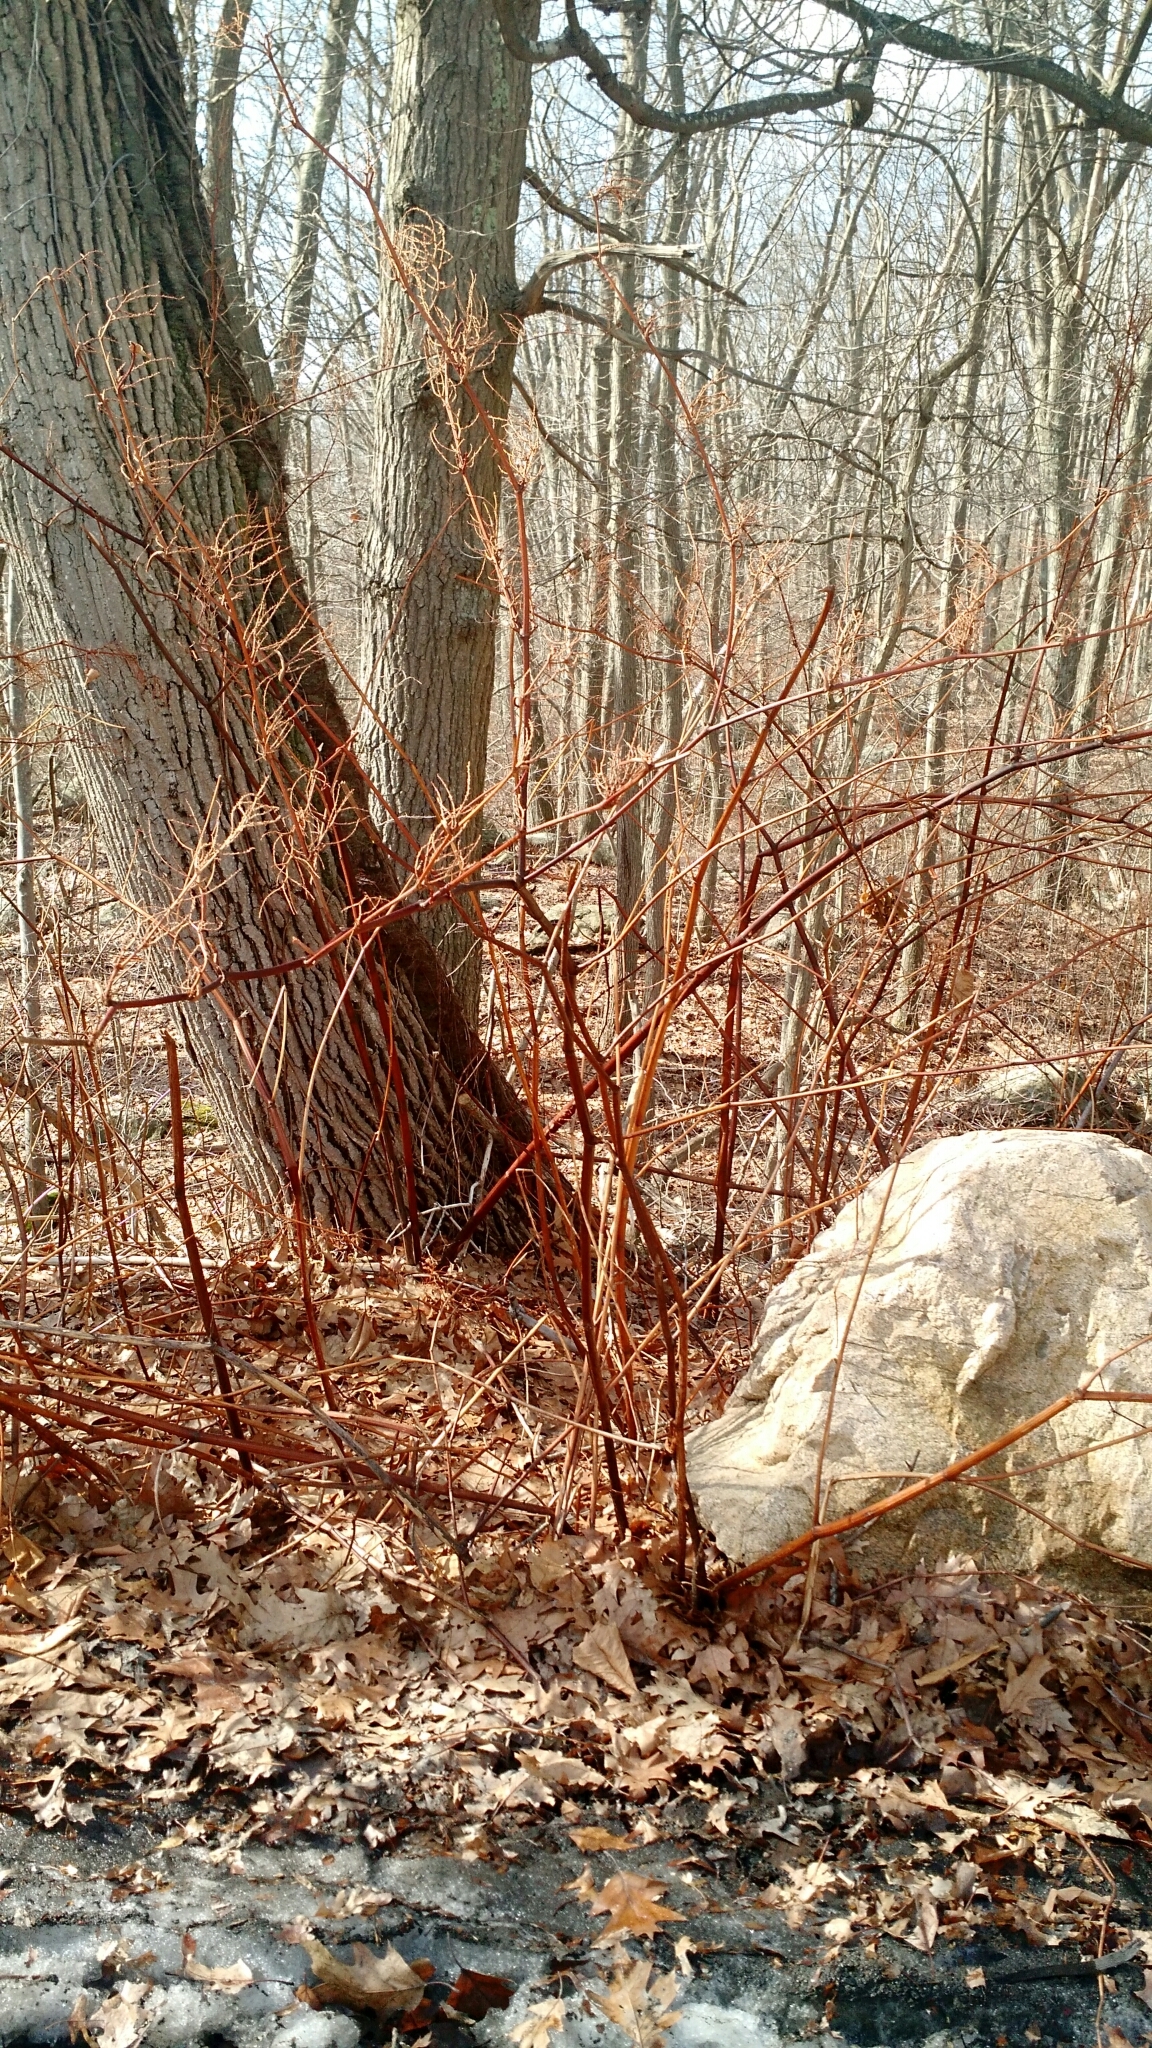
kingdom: Plantae
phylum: Tracheophyta
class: Magnoliopsida
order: Caryophyllales
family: Polygonaceae
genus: Reynoutria
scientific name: Reynoutria japonica
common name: Japanese knotweed
